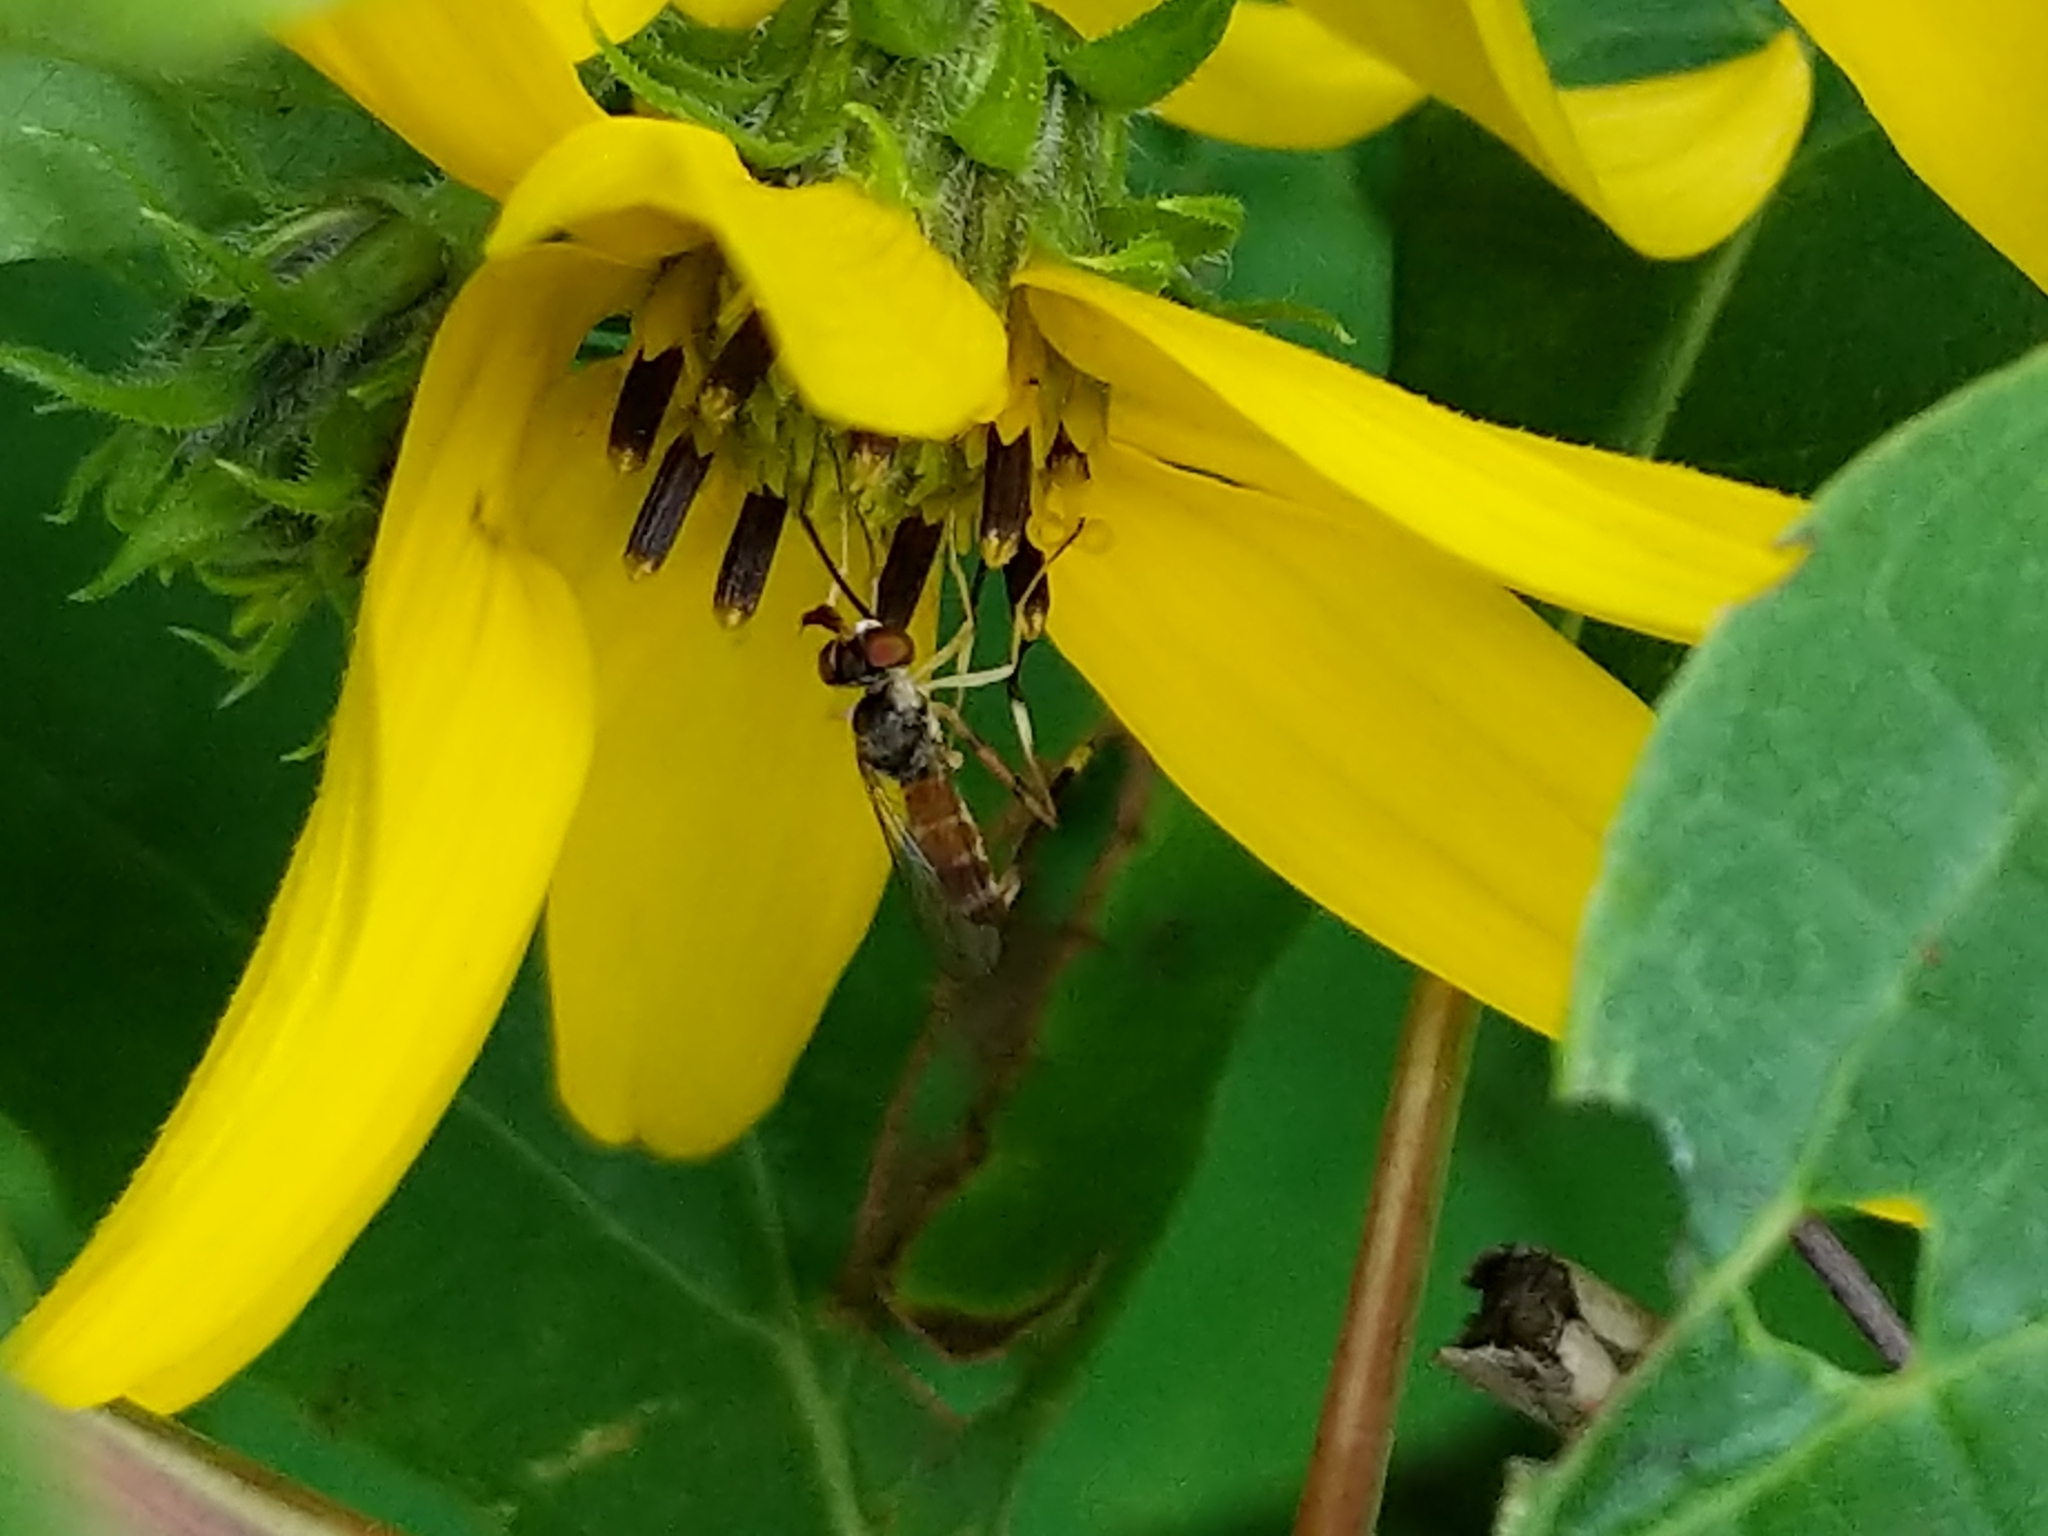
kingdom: Animalia
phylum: Arthropoda
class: Insecta
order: Diptera
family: Conopidae
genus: Stylogaster
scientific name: Stylogaster neglecta
